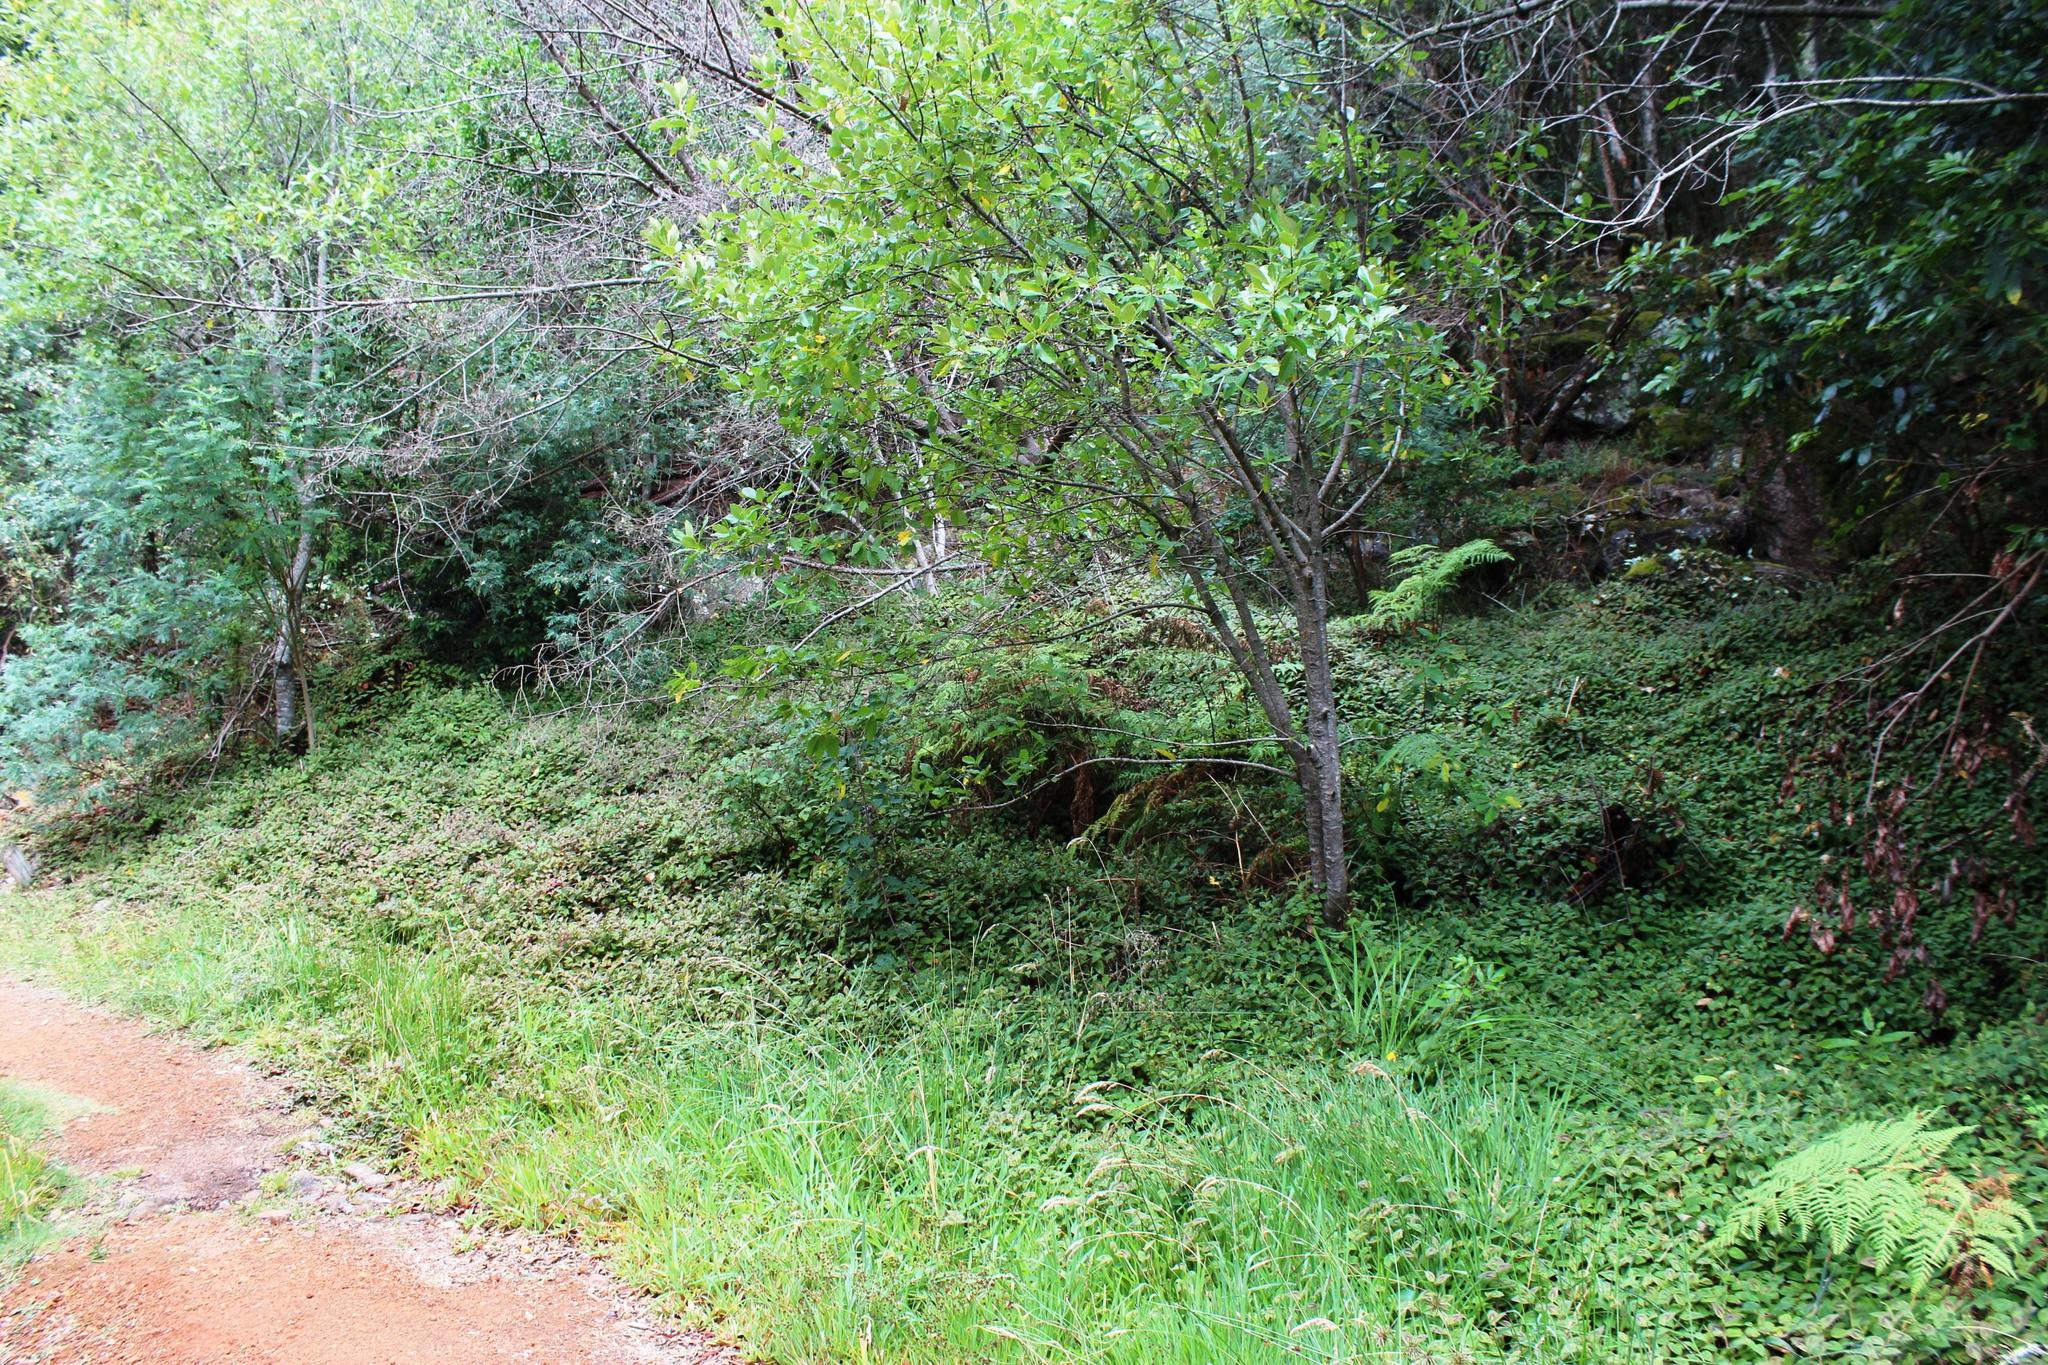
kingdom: Plantae
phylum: Tracheophyta
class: Magnoliopsida
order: Caryophyllales
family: Polygonaceae
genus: Persicaria
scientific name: Persicaria capitata
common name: Pinkhead smartweed
